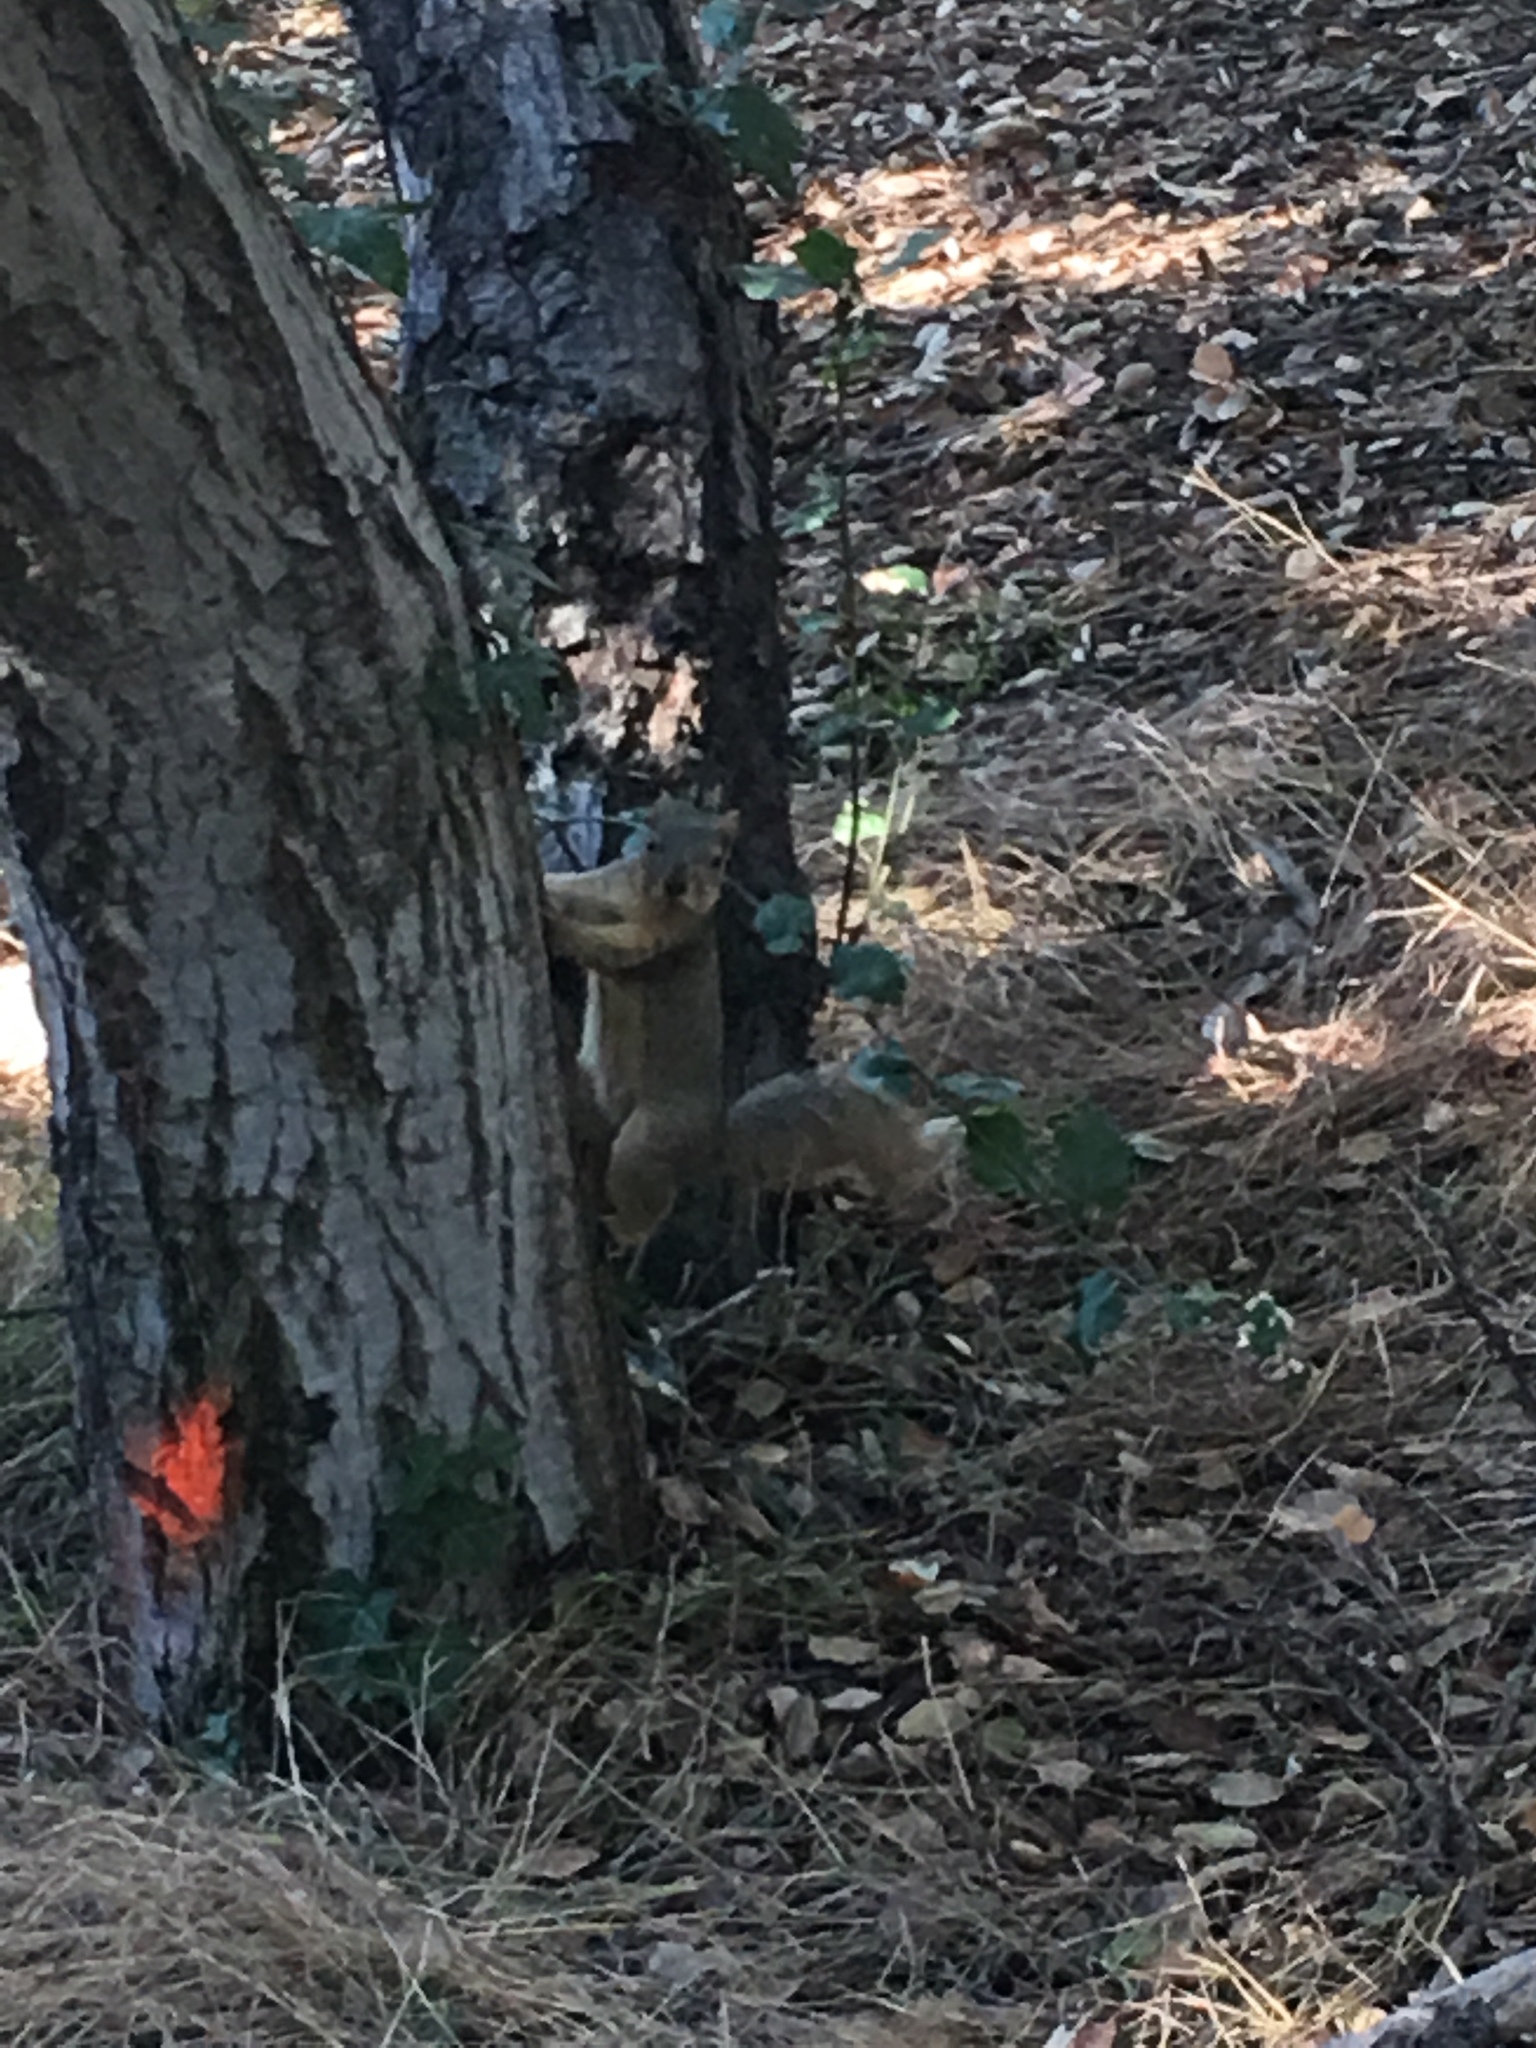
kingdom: Animalia
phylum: Chordata
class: Mammalia
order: Rodentia
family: Sciuridae
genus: Sciurus
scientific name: Sciurus niger
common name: Fox squirrel
